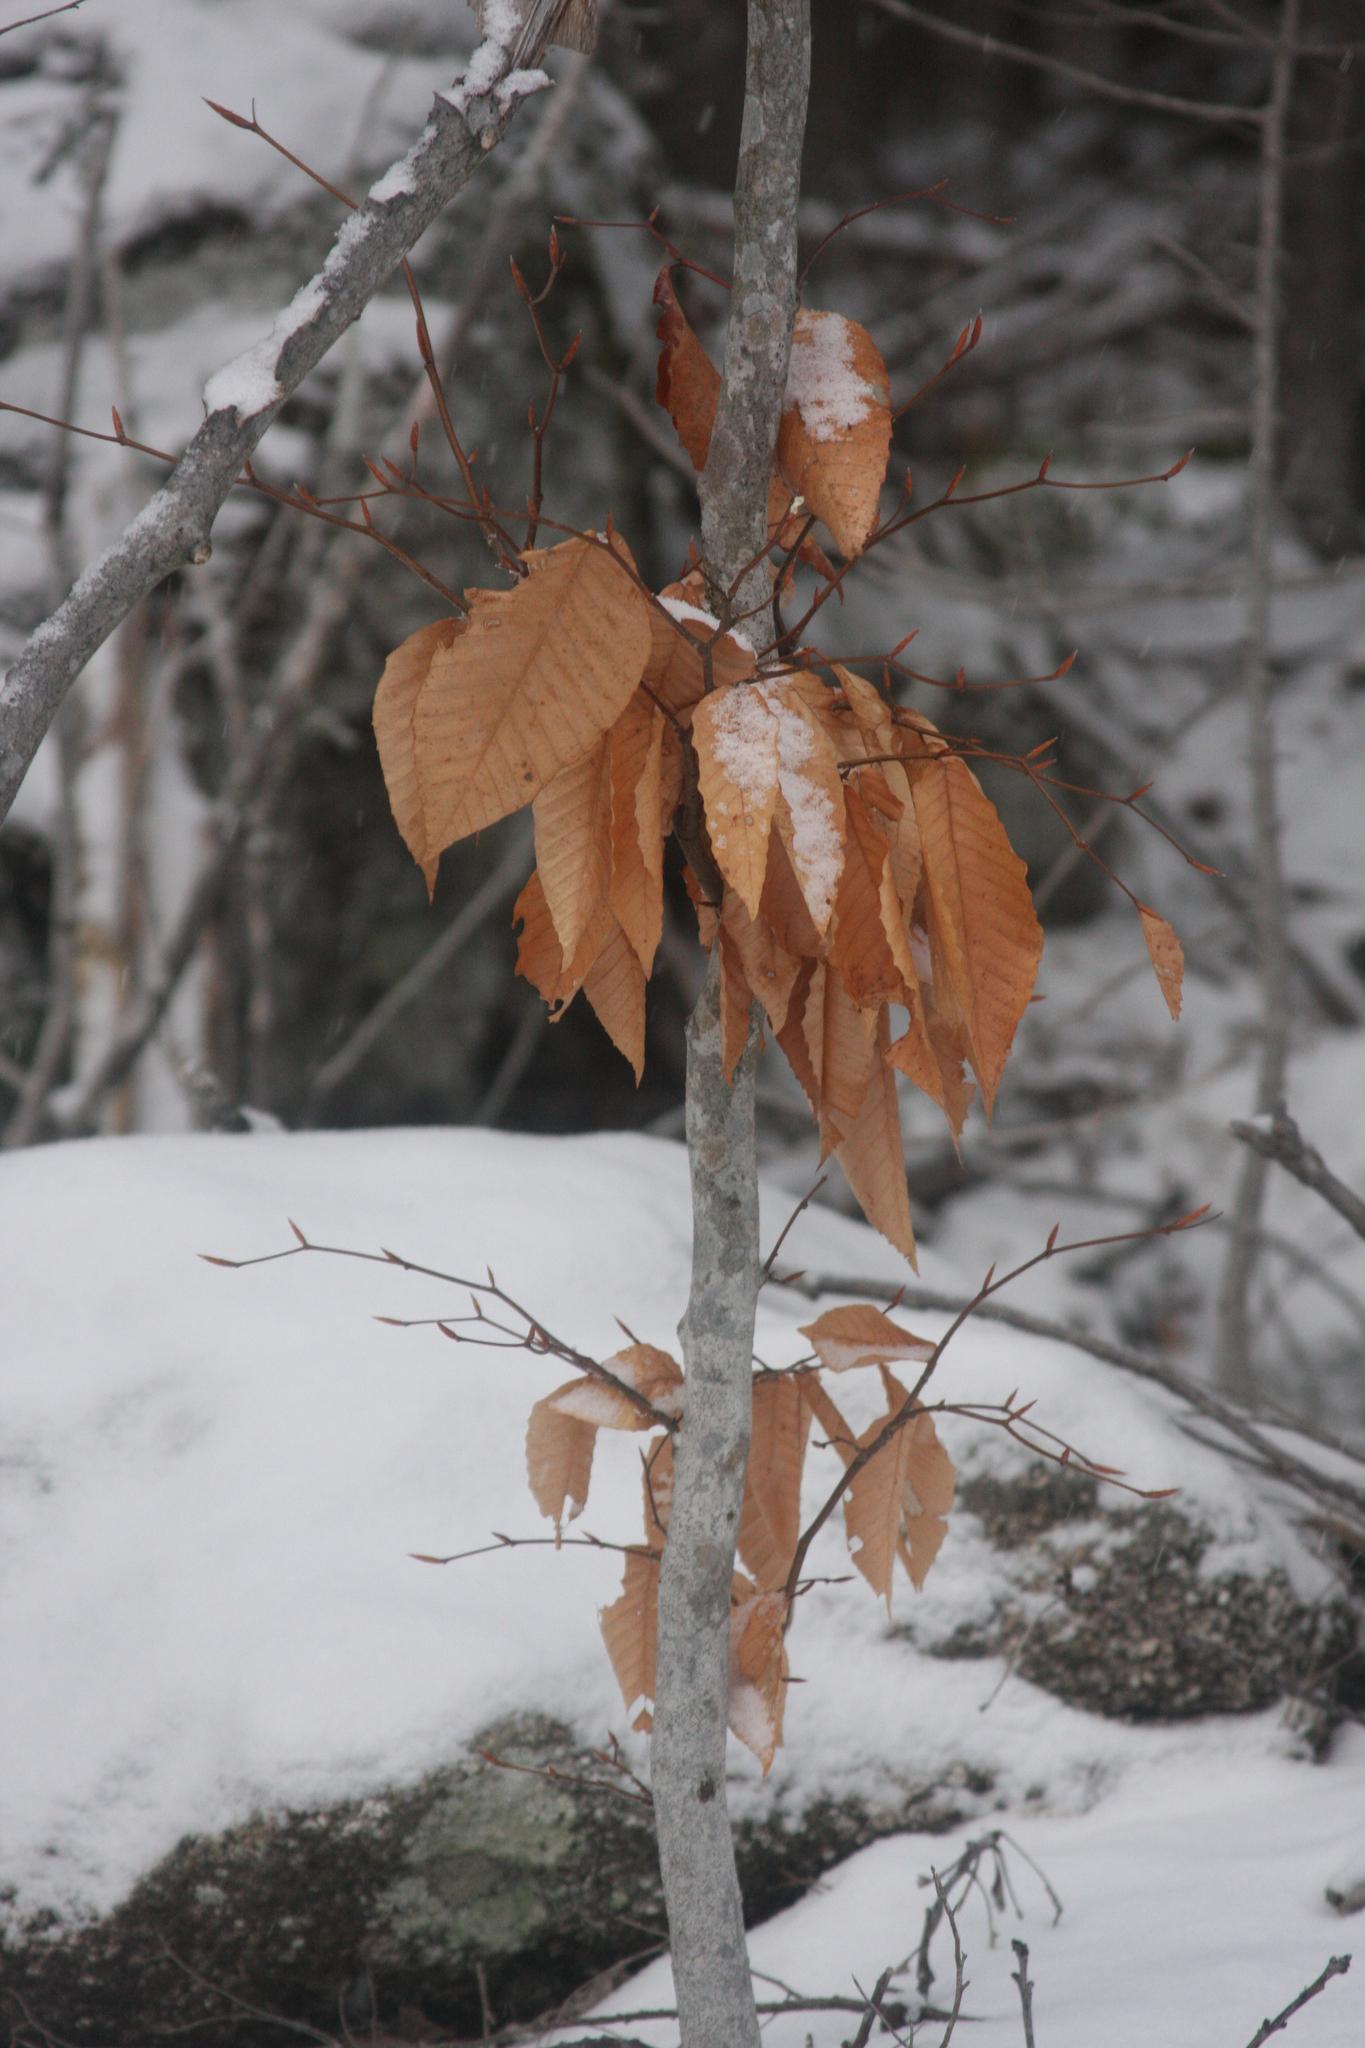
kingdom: Plantae
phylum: Tracheophyta
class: Magnoliopsida
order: Fagales
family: Fagaceae
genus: Fagus
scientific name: Fagus grandifolia
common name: American beech
